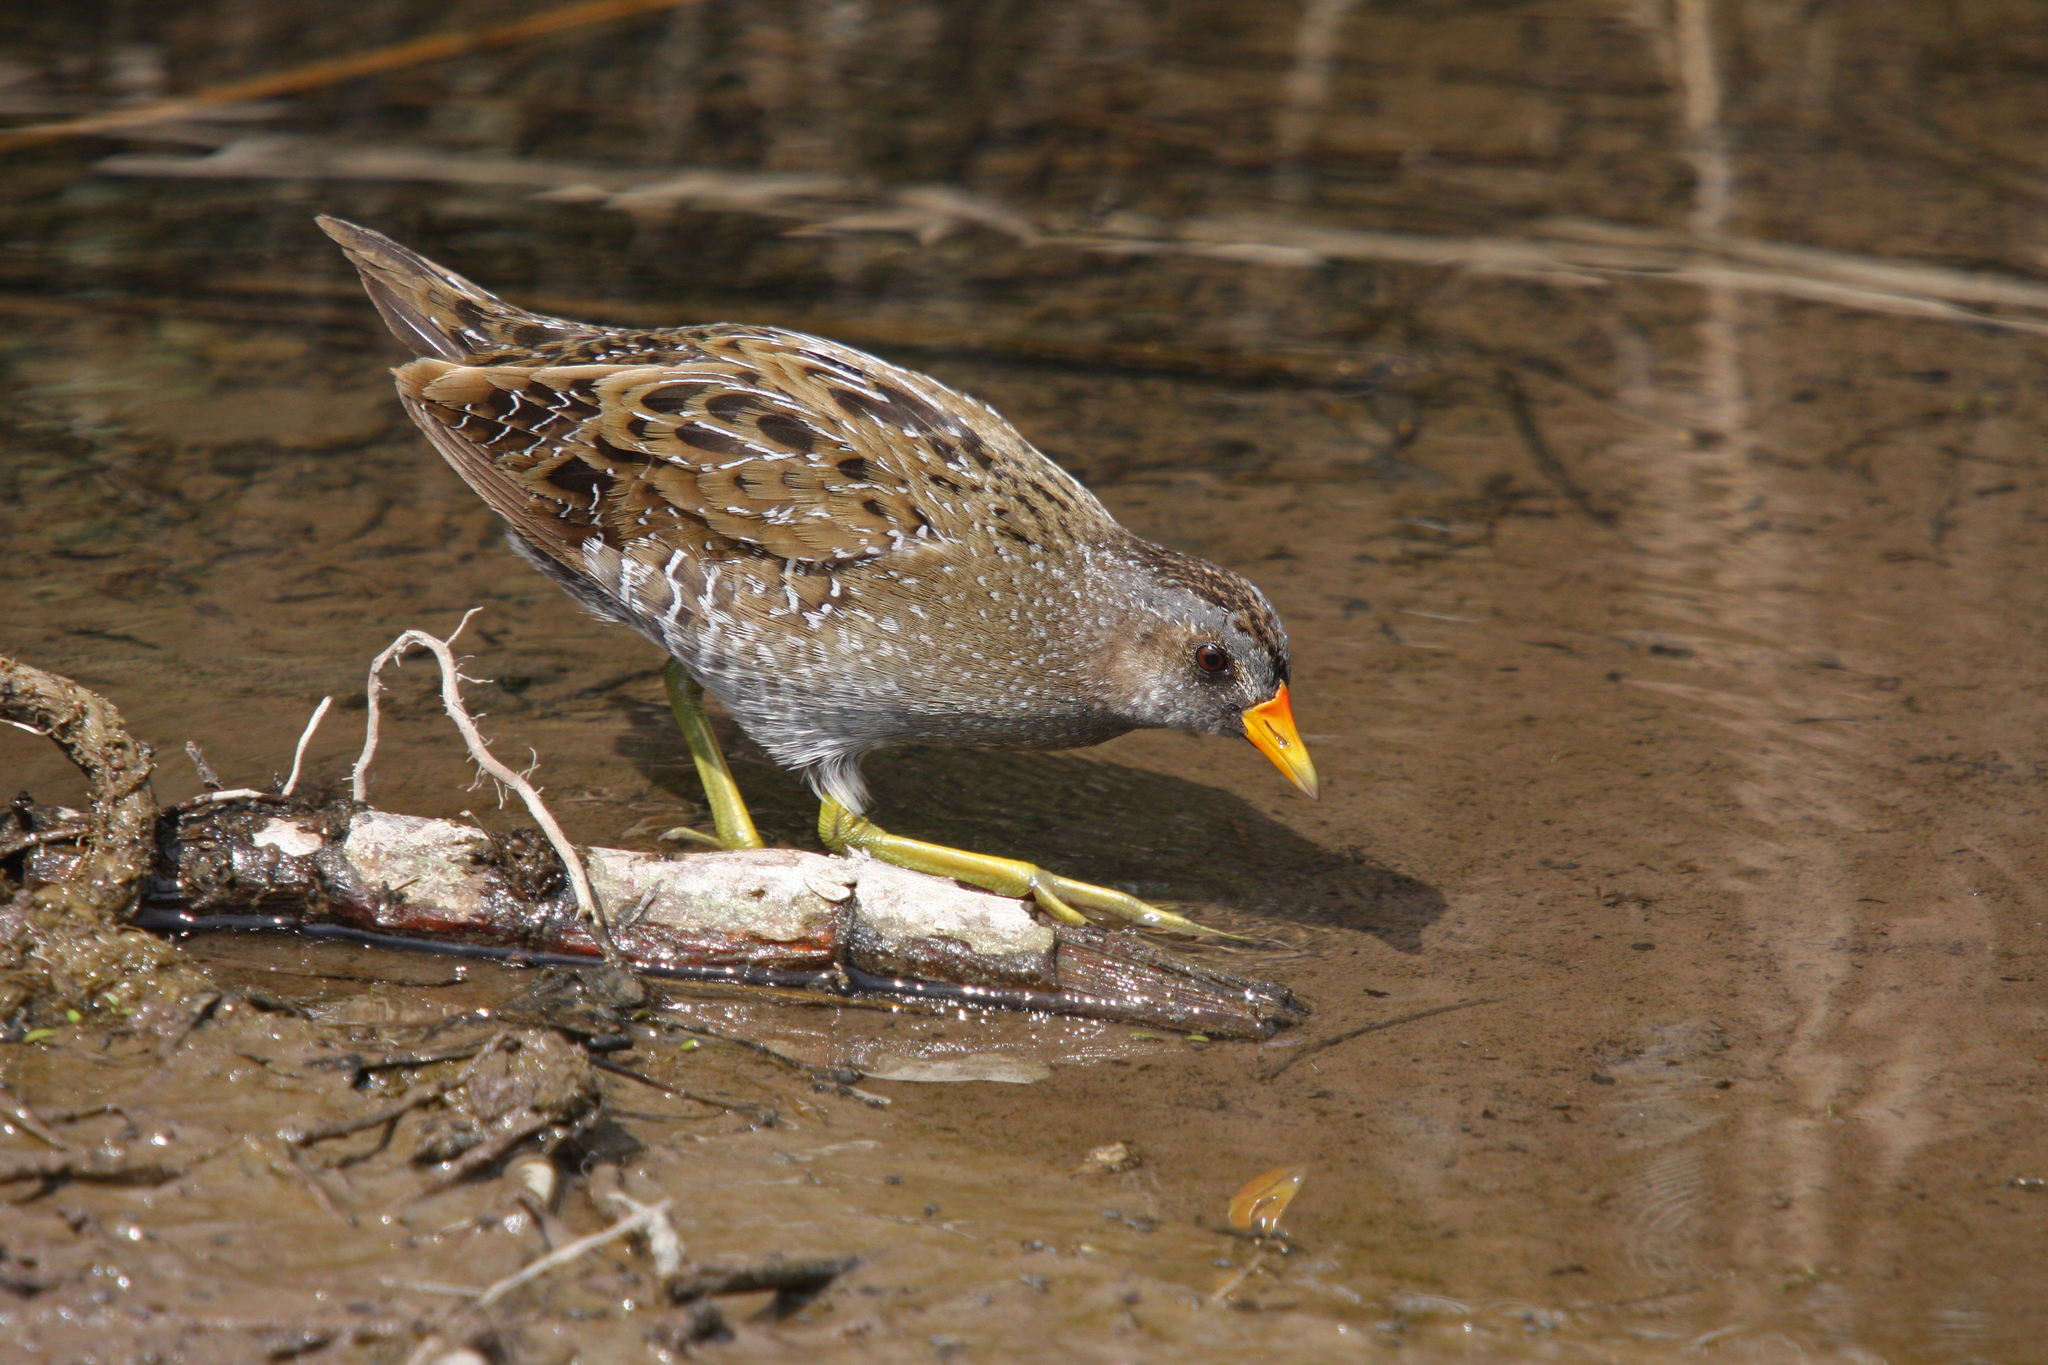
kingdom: Animalia
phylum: Chordata
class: Aves
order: Gruiformes
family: Rallidae
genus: Porzana
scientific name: Porzana porzana
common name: Spotted crake
